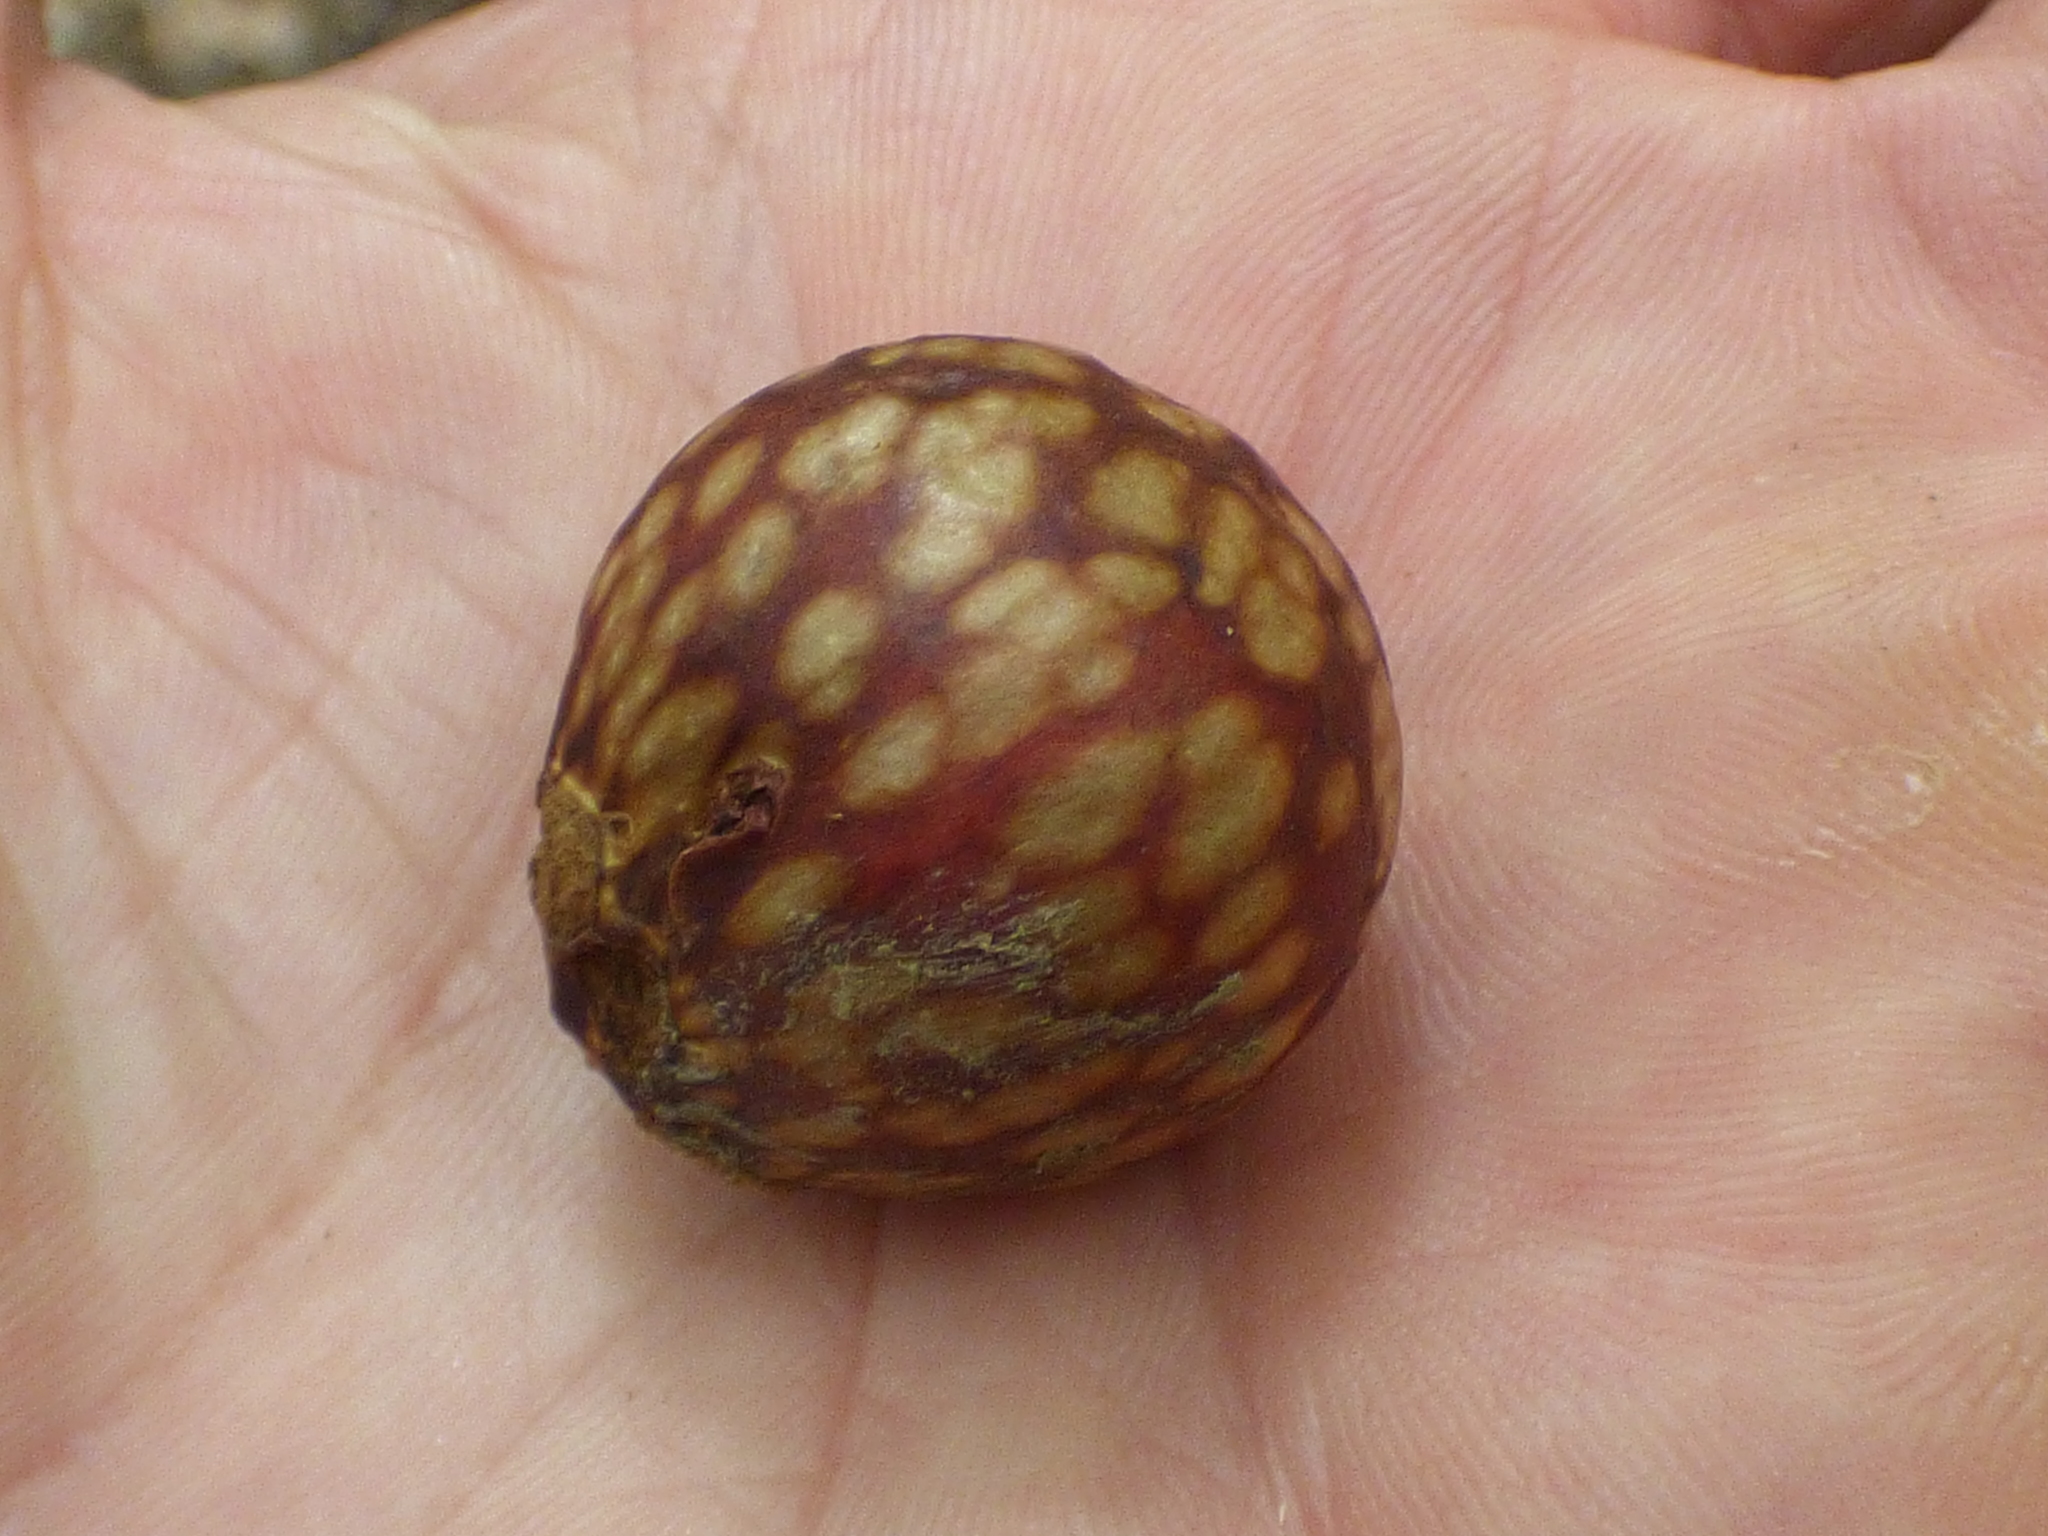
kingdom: Animalia
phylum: Arthropoda
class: Insecta
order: Hymenoptera
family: Cynipidae
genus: Amphibolips
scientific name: Amphibolips
